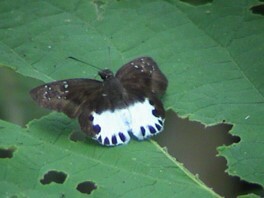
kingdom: Animalia
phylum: Arthropoda
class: Insecta
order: Lepidoptera
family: Hesperiidae
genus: Tagiades
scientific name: Tagiades litigiosa
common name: Water snow flat
